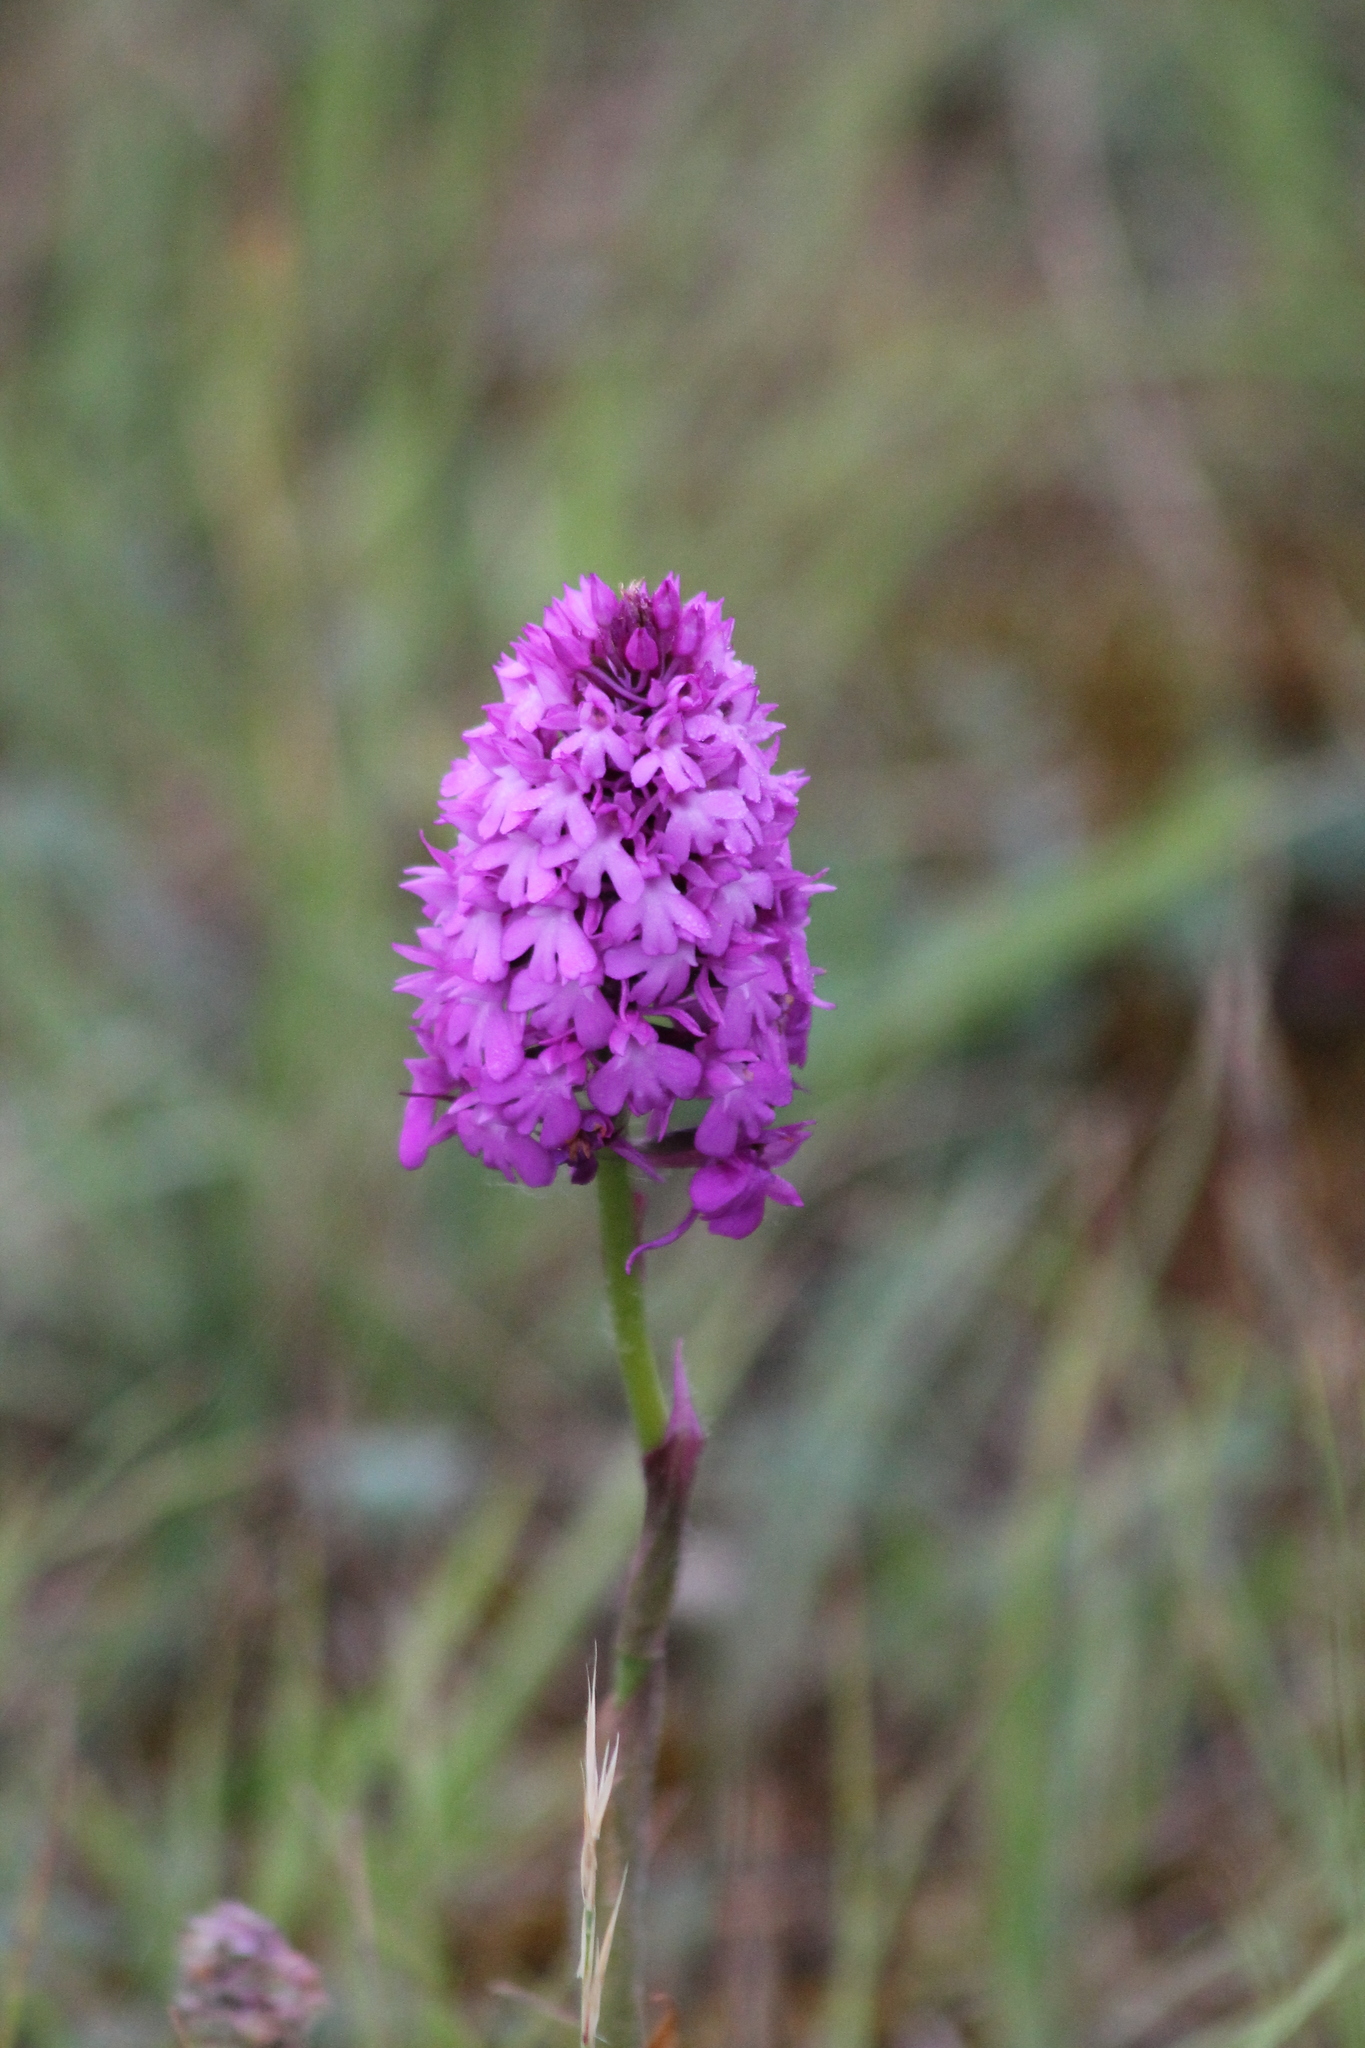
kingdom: Plantae
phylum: Tracheophyta
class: Liliopsida
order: Asparagales
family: Orchidaceae
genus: Anacamptis
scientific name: Anacamptis pyramidalis
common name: Pyramidal orchid
